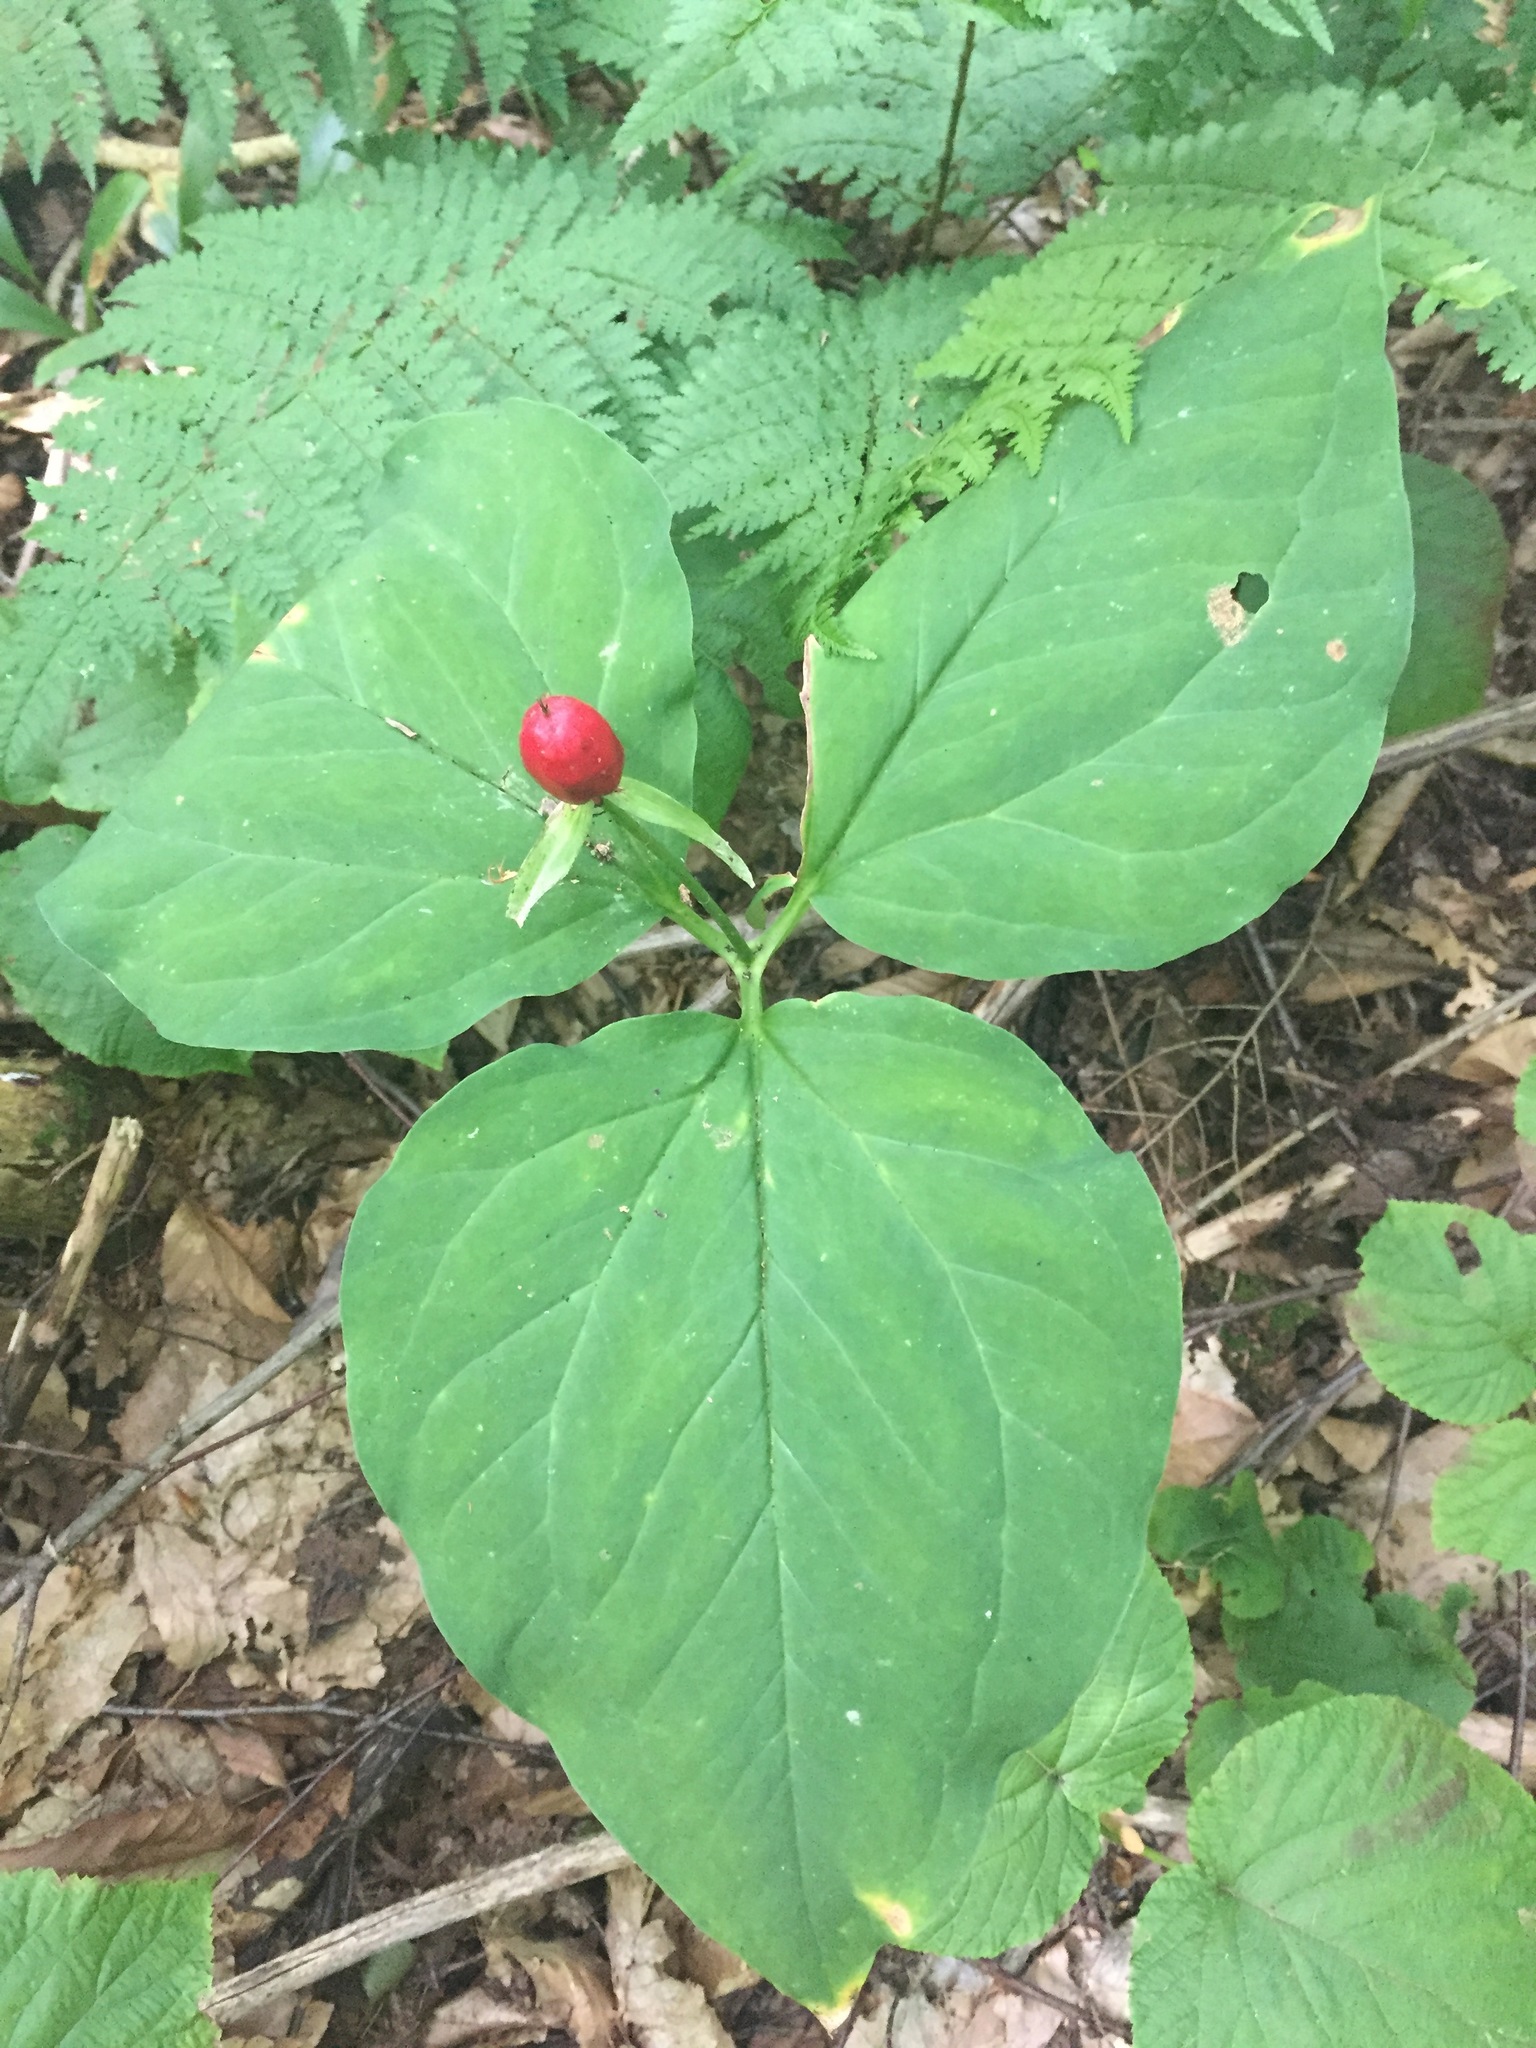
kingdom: Plantae
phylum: Tracheophyta
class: Liliopsida
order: Liliales
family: Melanthiaceae
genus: Trillium
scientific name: Trillium undulatum
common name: Paint trillium
